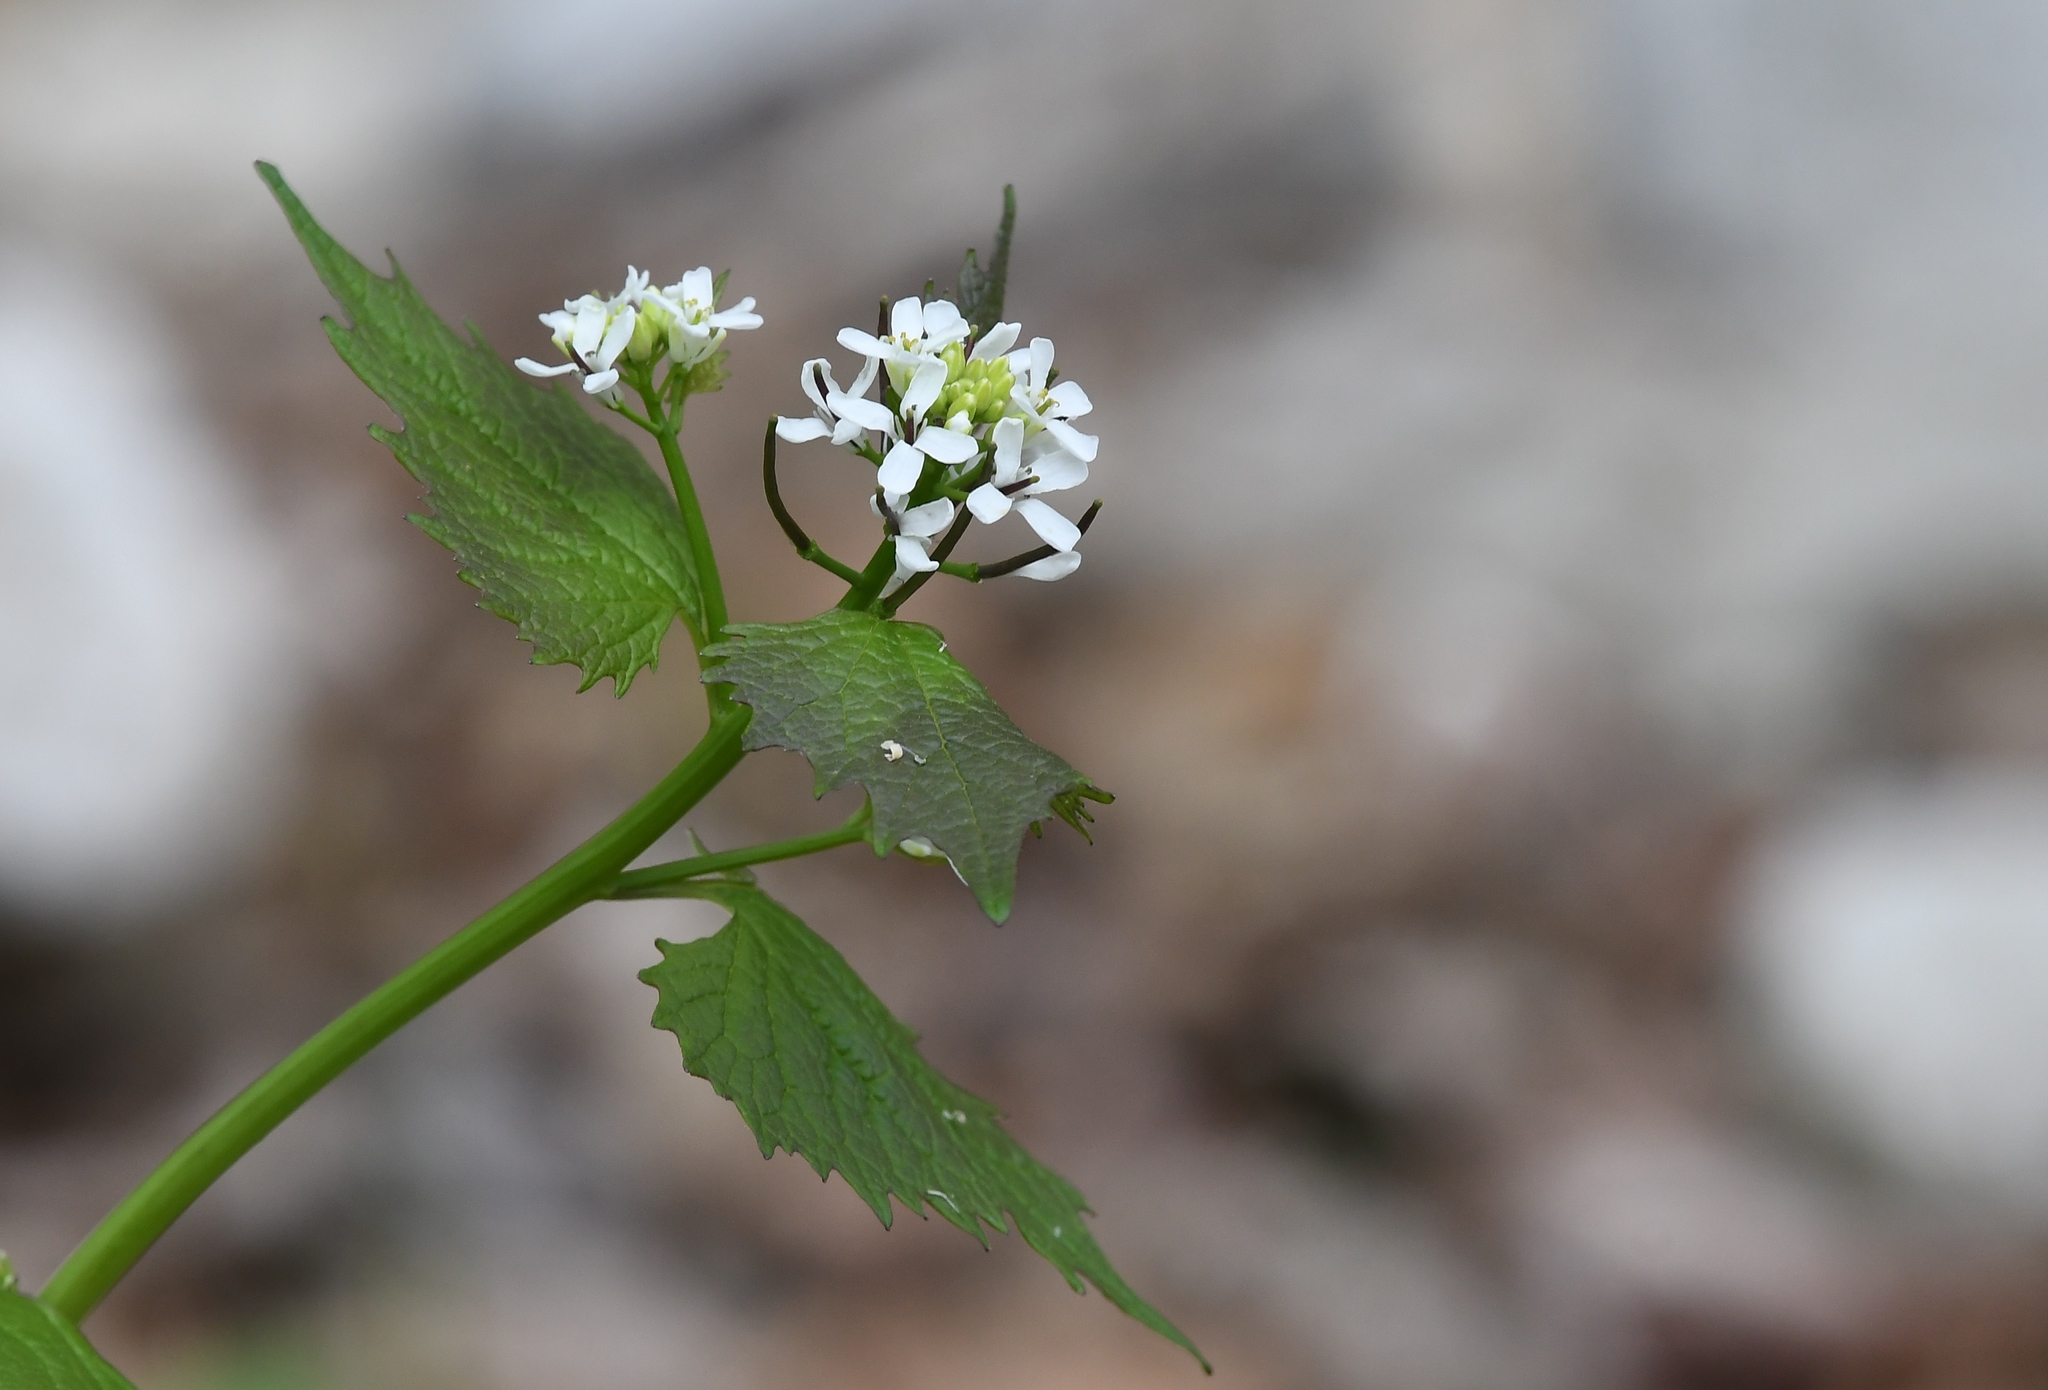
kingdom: Plantae
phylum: Tracheophyta
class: Magnoliopsida
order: Brassicales
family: Brassicaceae
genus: Alliaria
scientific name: Alliaria petiolata
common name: Garlic mustard
